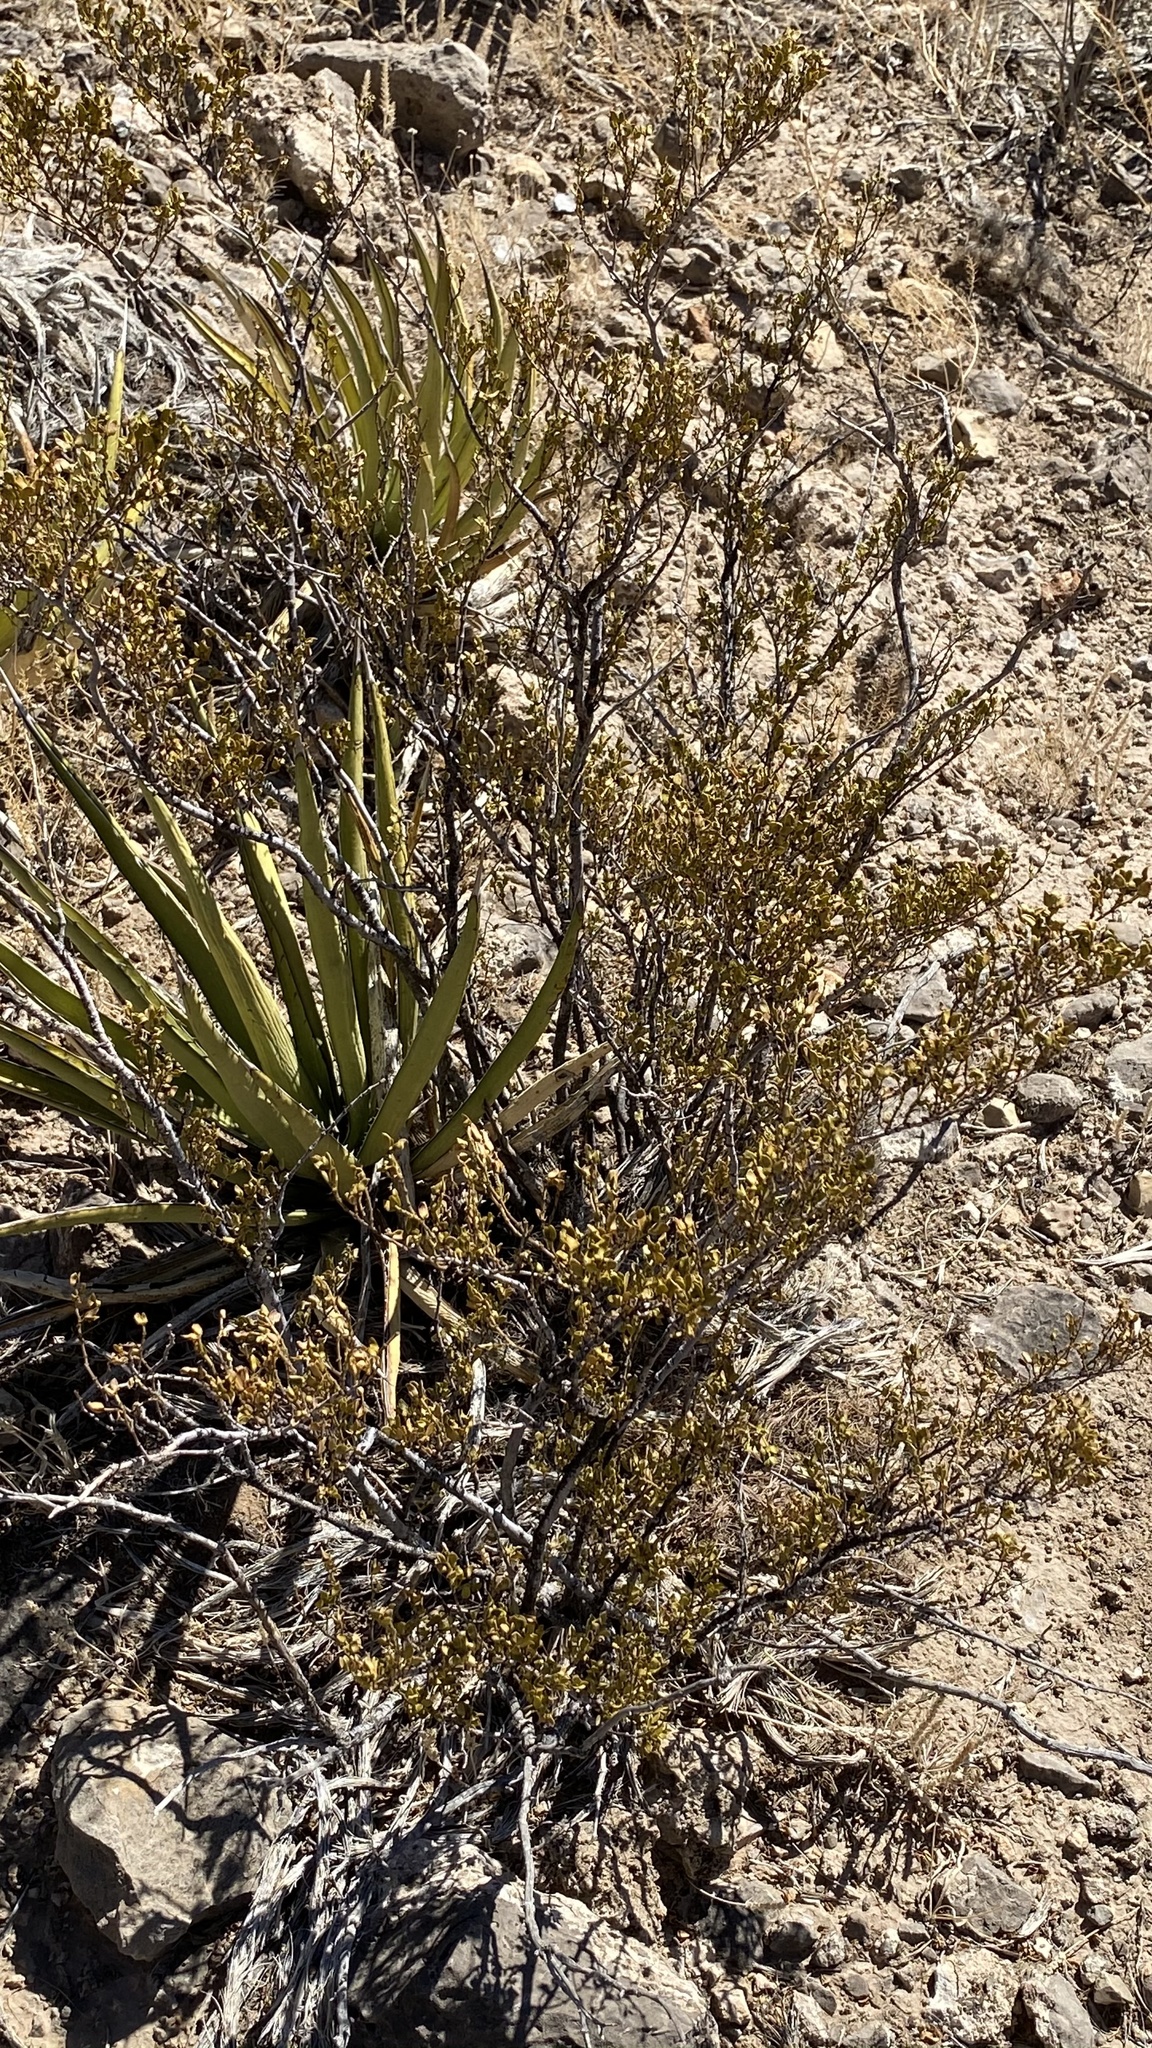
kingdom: Plantae
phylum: Tracheophyta
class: Magnoliopsida
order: Zygophyllales
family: Zygophyllaceae
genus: Larrea
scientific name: Larrea tridentata
